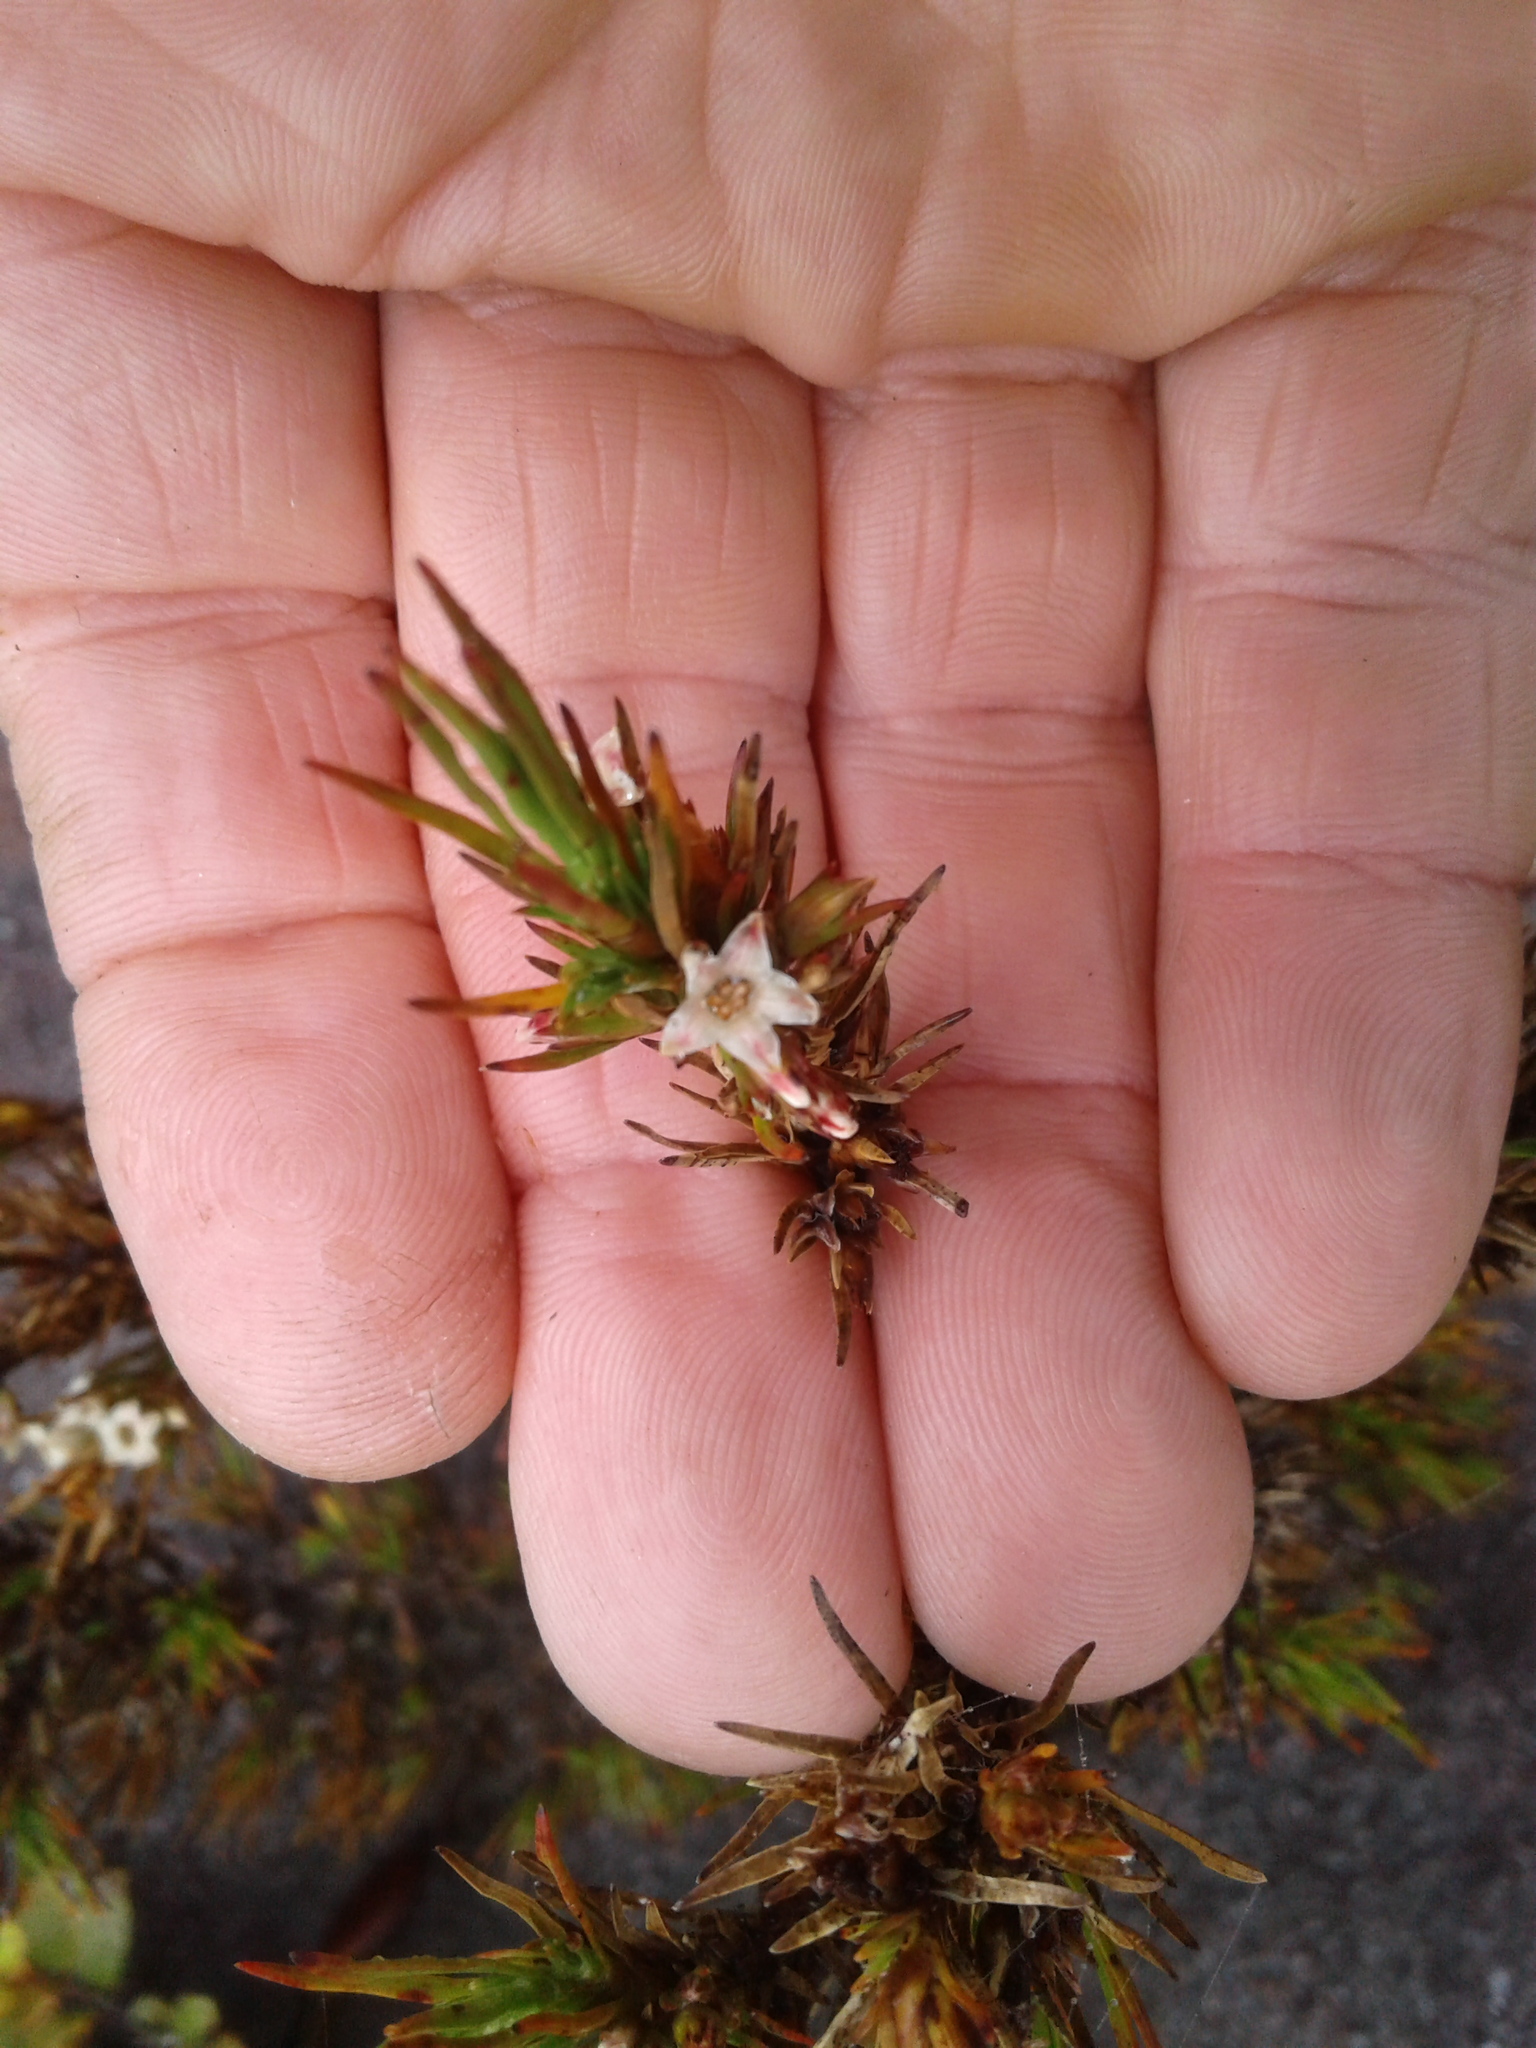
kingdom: Plantae
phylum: Tracheophyta
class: Magnoliopsida
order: Ericales
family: Ericaceae
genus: Dracophyllum
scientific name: Dracophyllum
